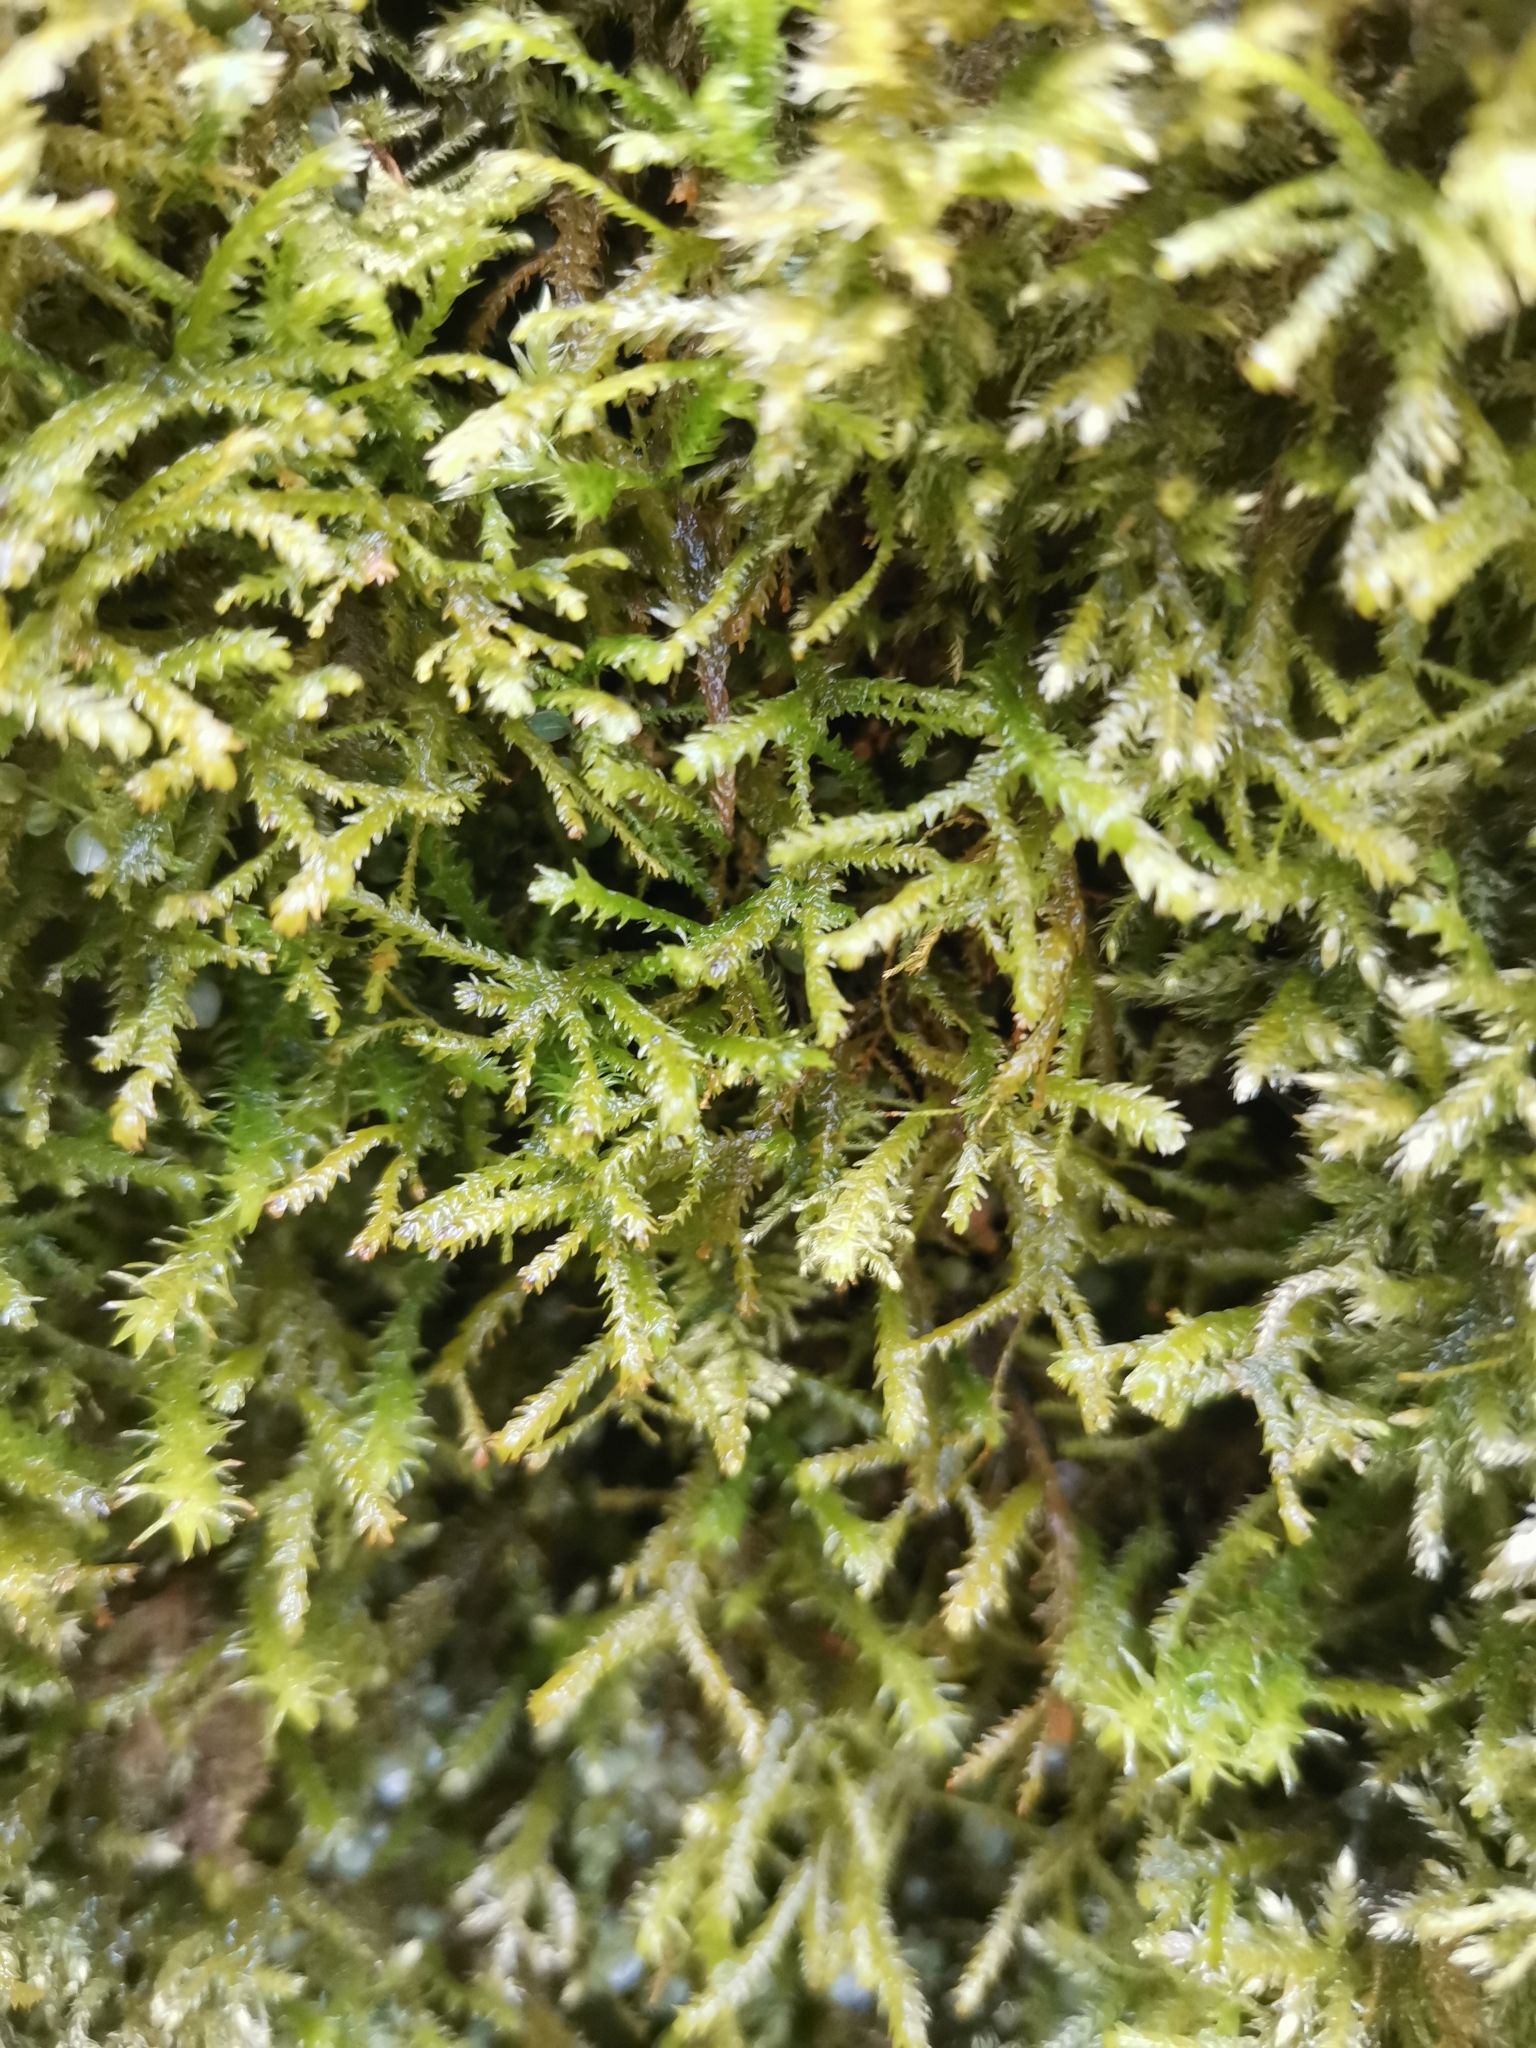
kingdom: Plantae
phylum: Bryophyta
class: Bryopsida
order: Hypnales
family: Neckeraceae
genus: Pseudanomodon
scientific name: Pseudanomodon attenuatus
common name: Tree-skirt moss
